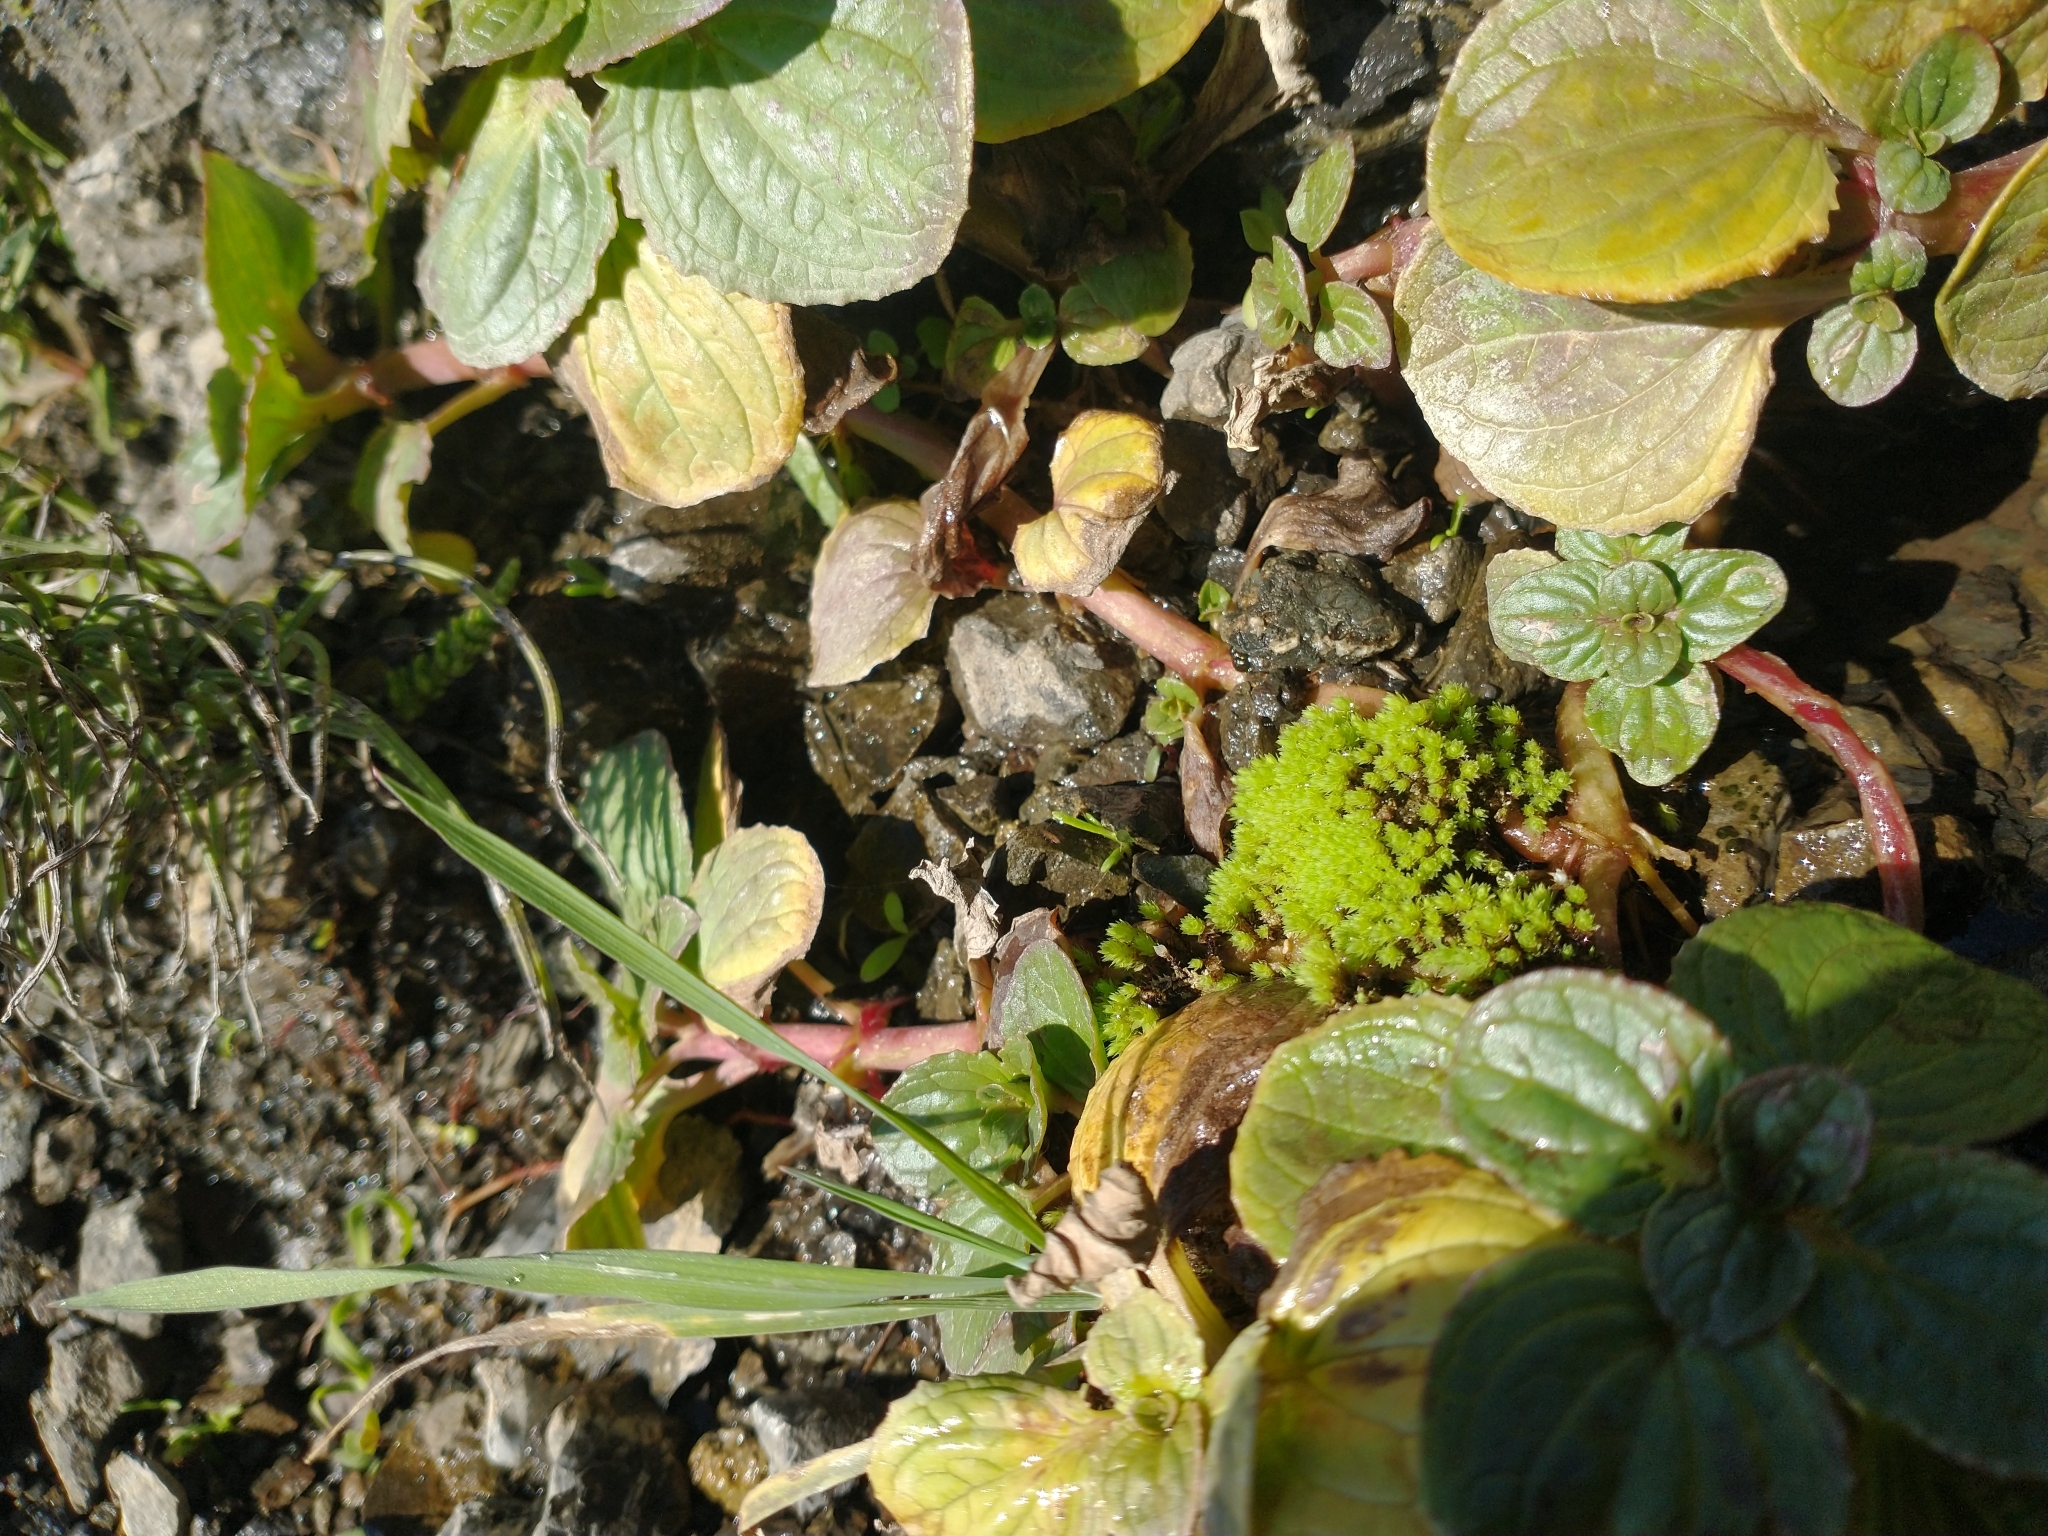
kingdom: Plantae
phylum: Tracheophyta
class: Magnoliopsida
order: Lamiales
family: Phrymaceae
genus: Erythranthe
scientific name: Erythranthe grandis
